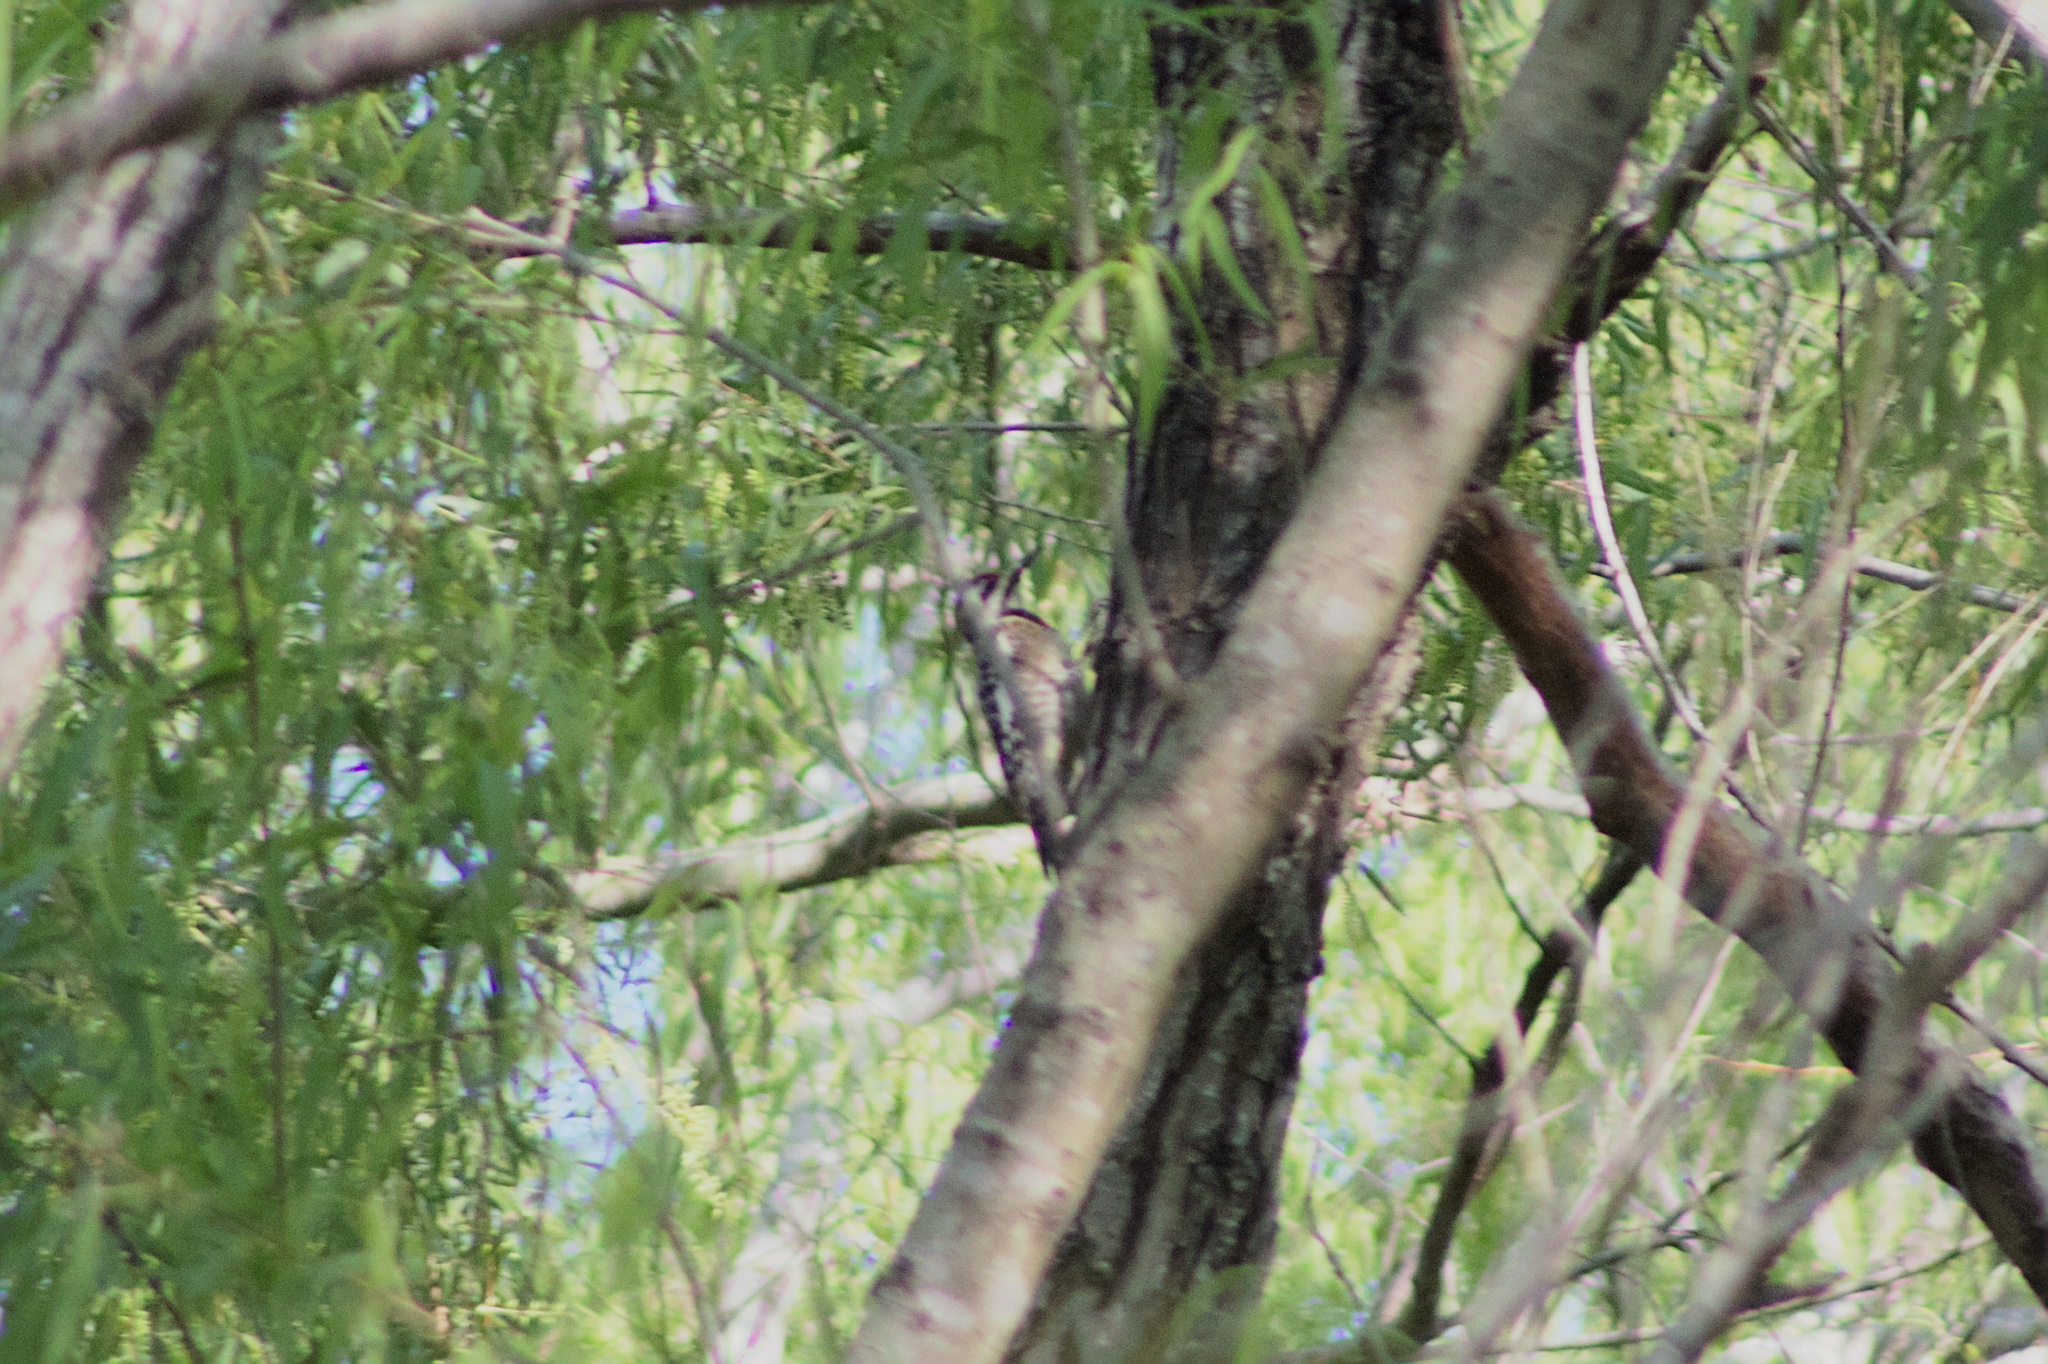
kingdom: Animalia
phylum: Chordata
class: Aves
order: Piciformes
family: Picidae
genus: Sphyrapicus
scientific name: Sphyrapicus varius
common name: Yellow-bellied sapsucker
